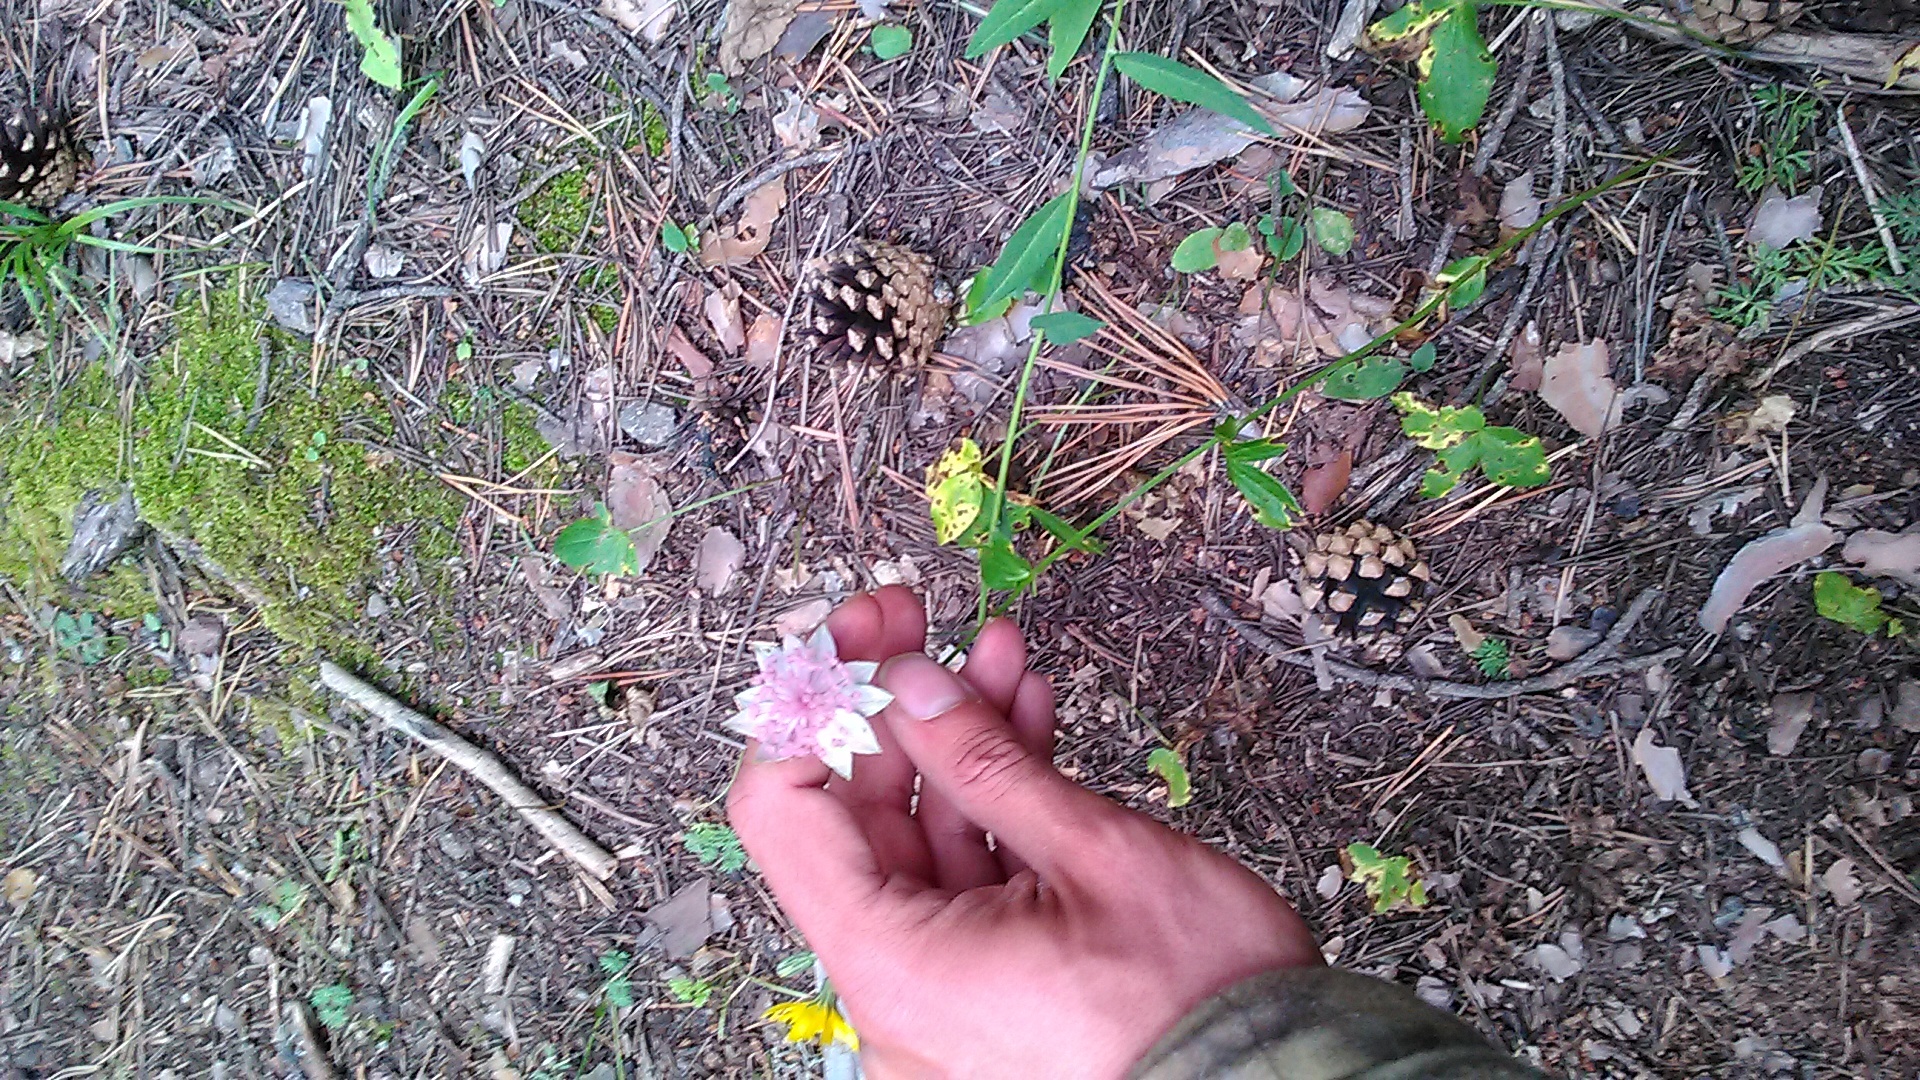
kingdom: Plantae
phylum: Tracheophyta
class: Magnoliopsida
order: Apiales
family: Apiaceae
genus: Astrantia
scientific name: Astrantia maxima
